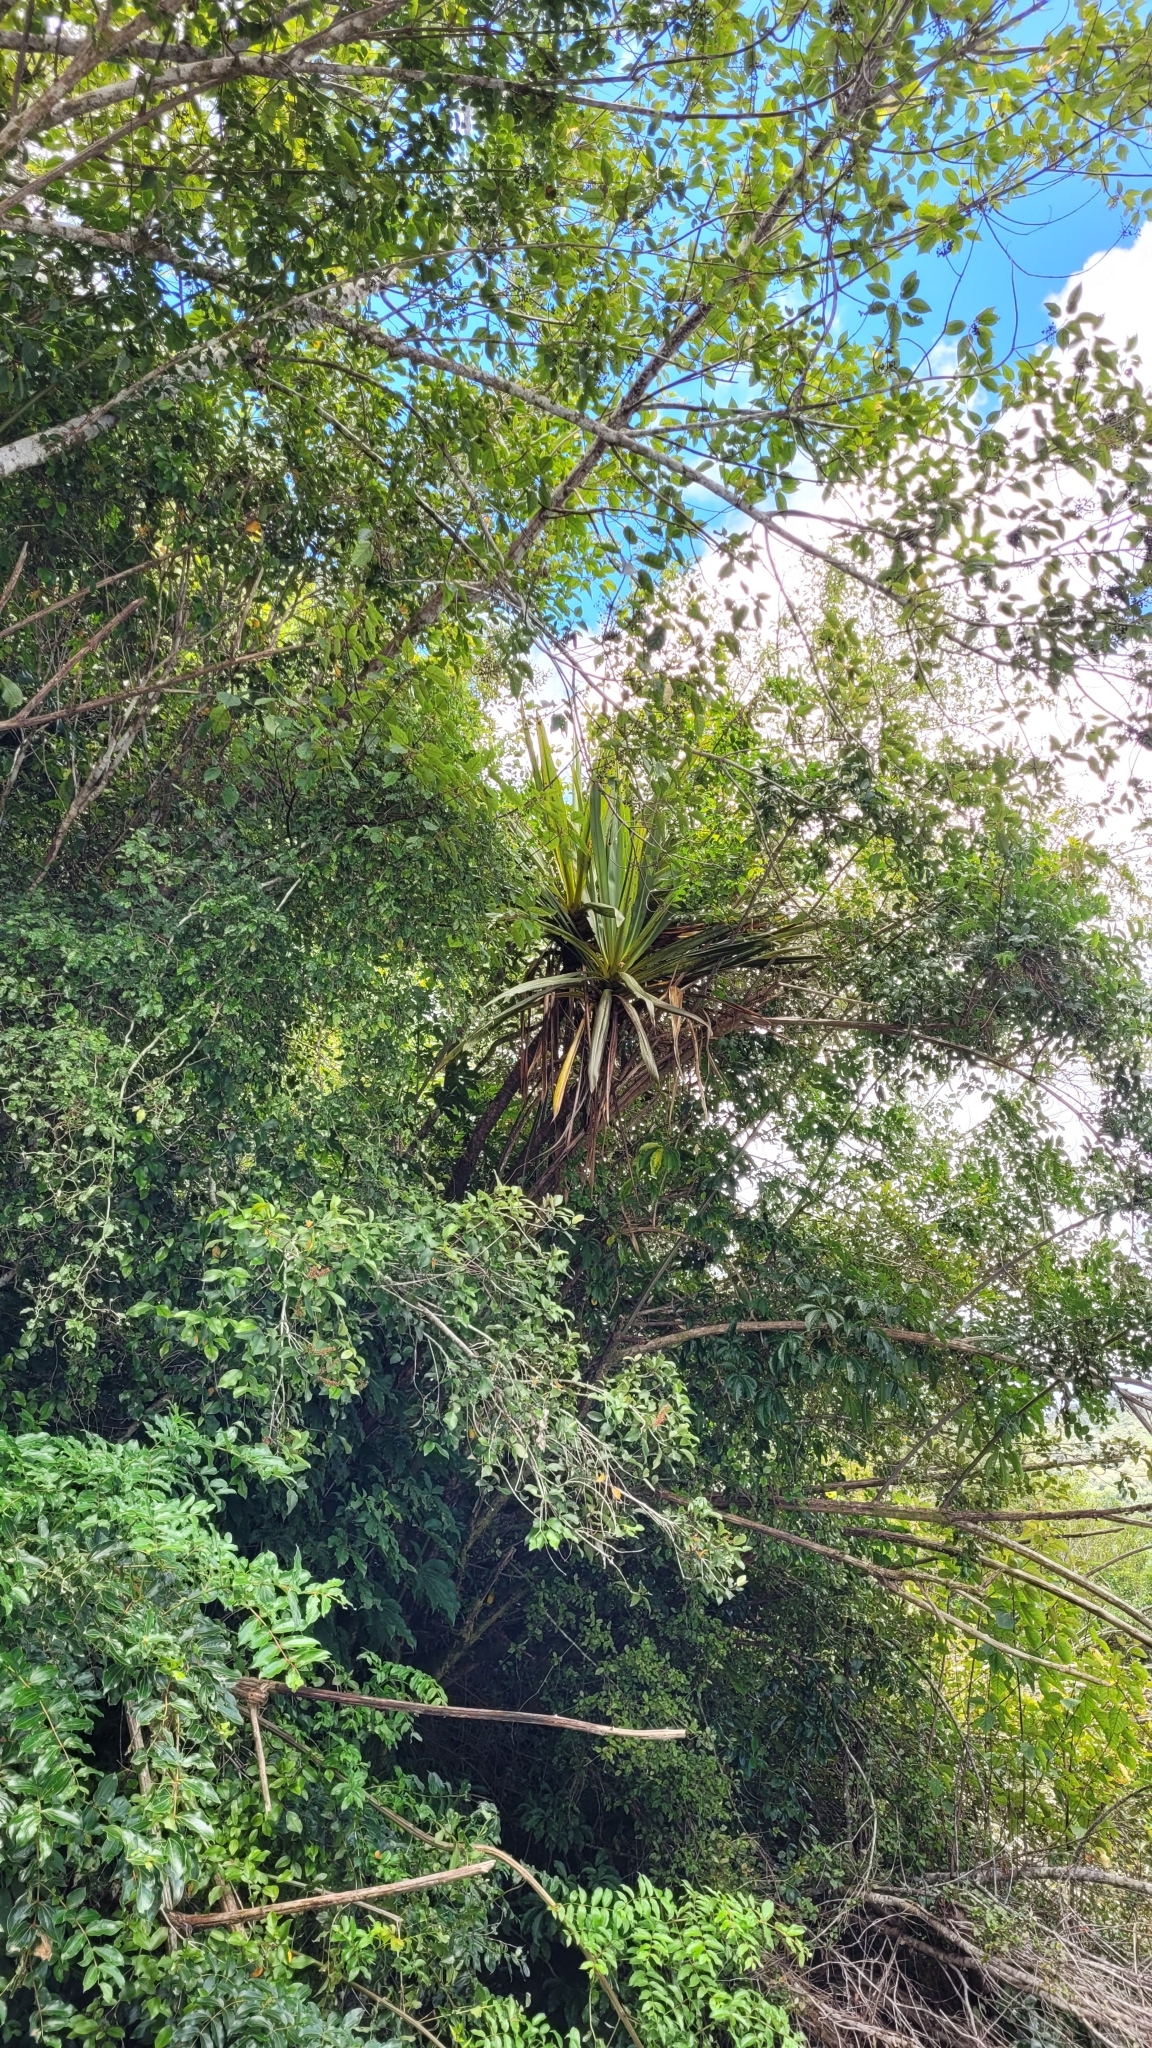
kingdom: Plantae
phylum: Tracheophyta
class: Liliopsida
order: Asparagales
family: Asparagaceae
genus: Cordyline
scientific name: Cordyline indivisa
